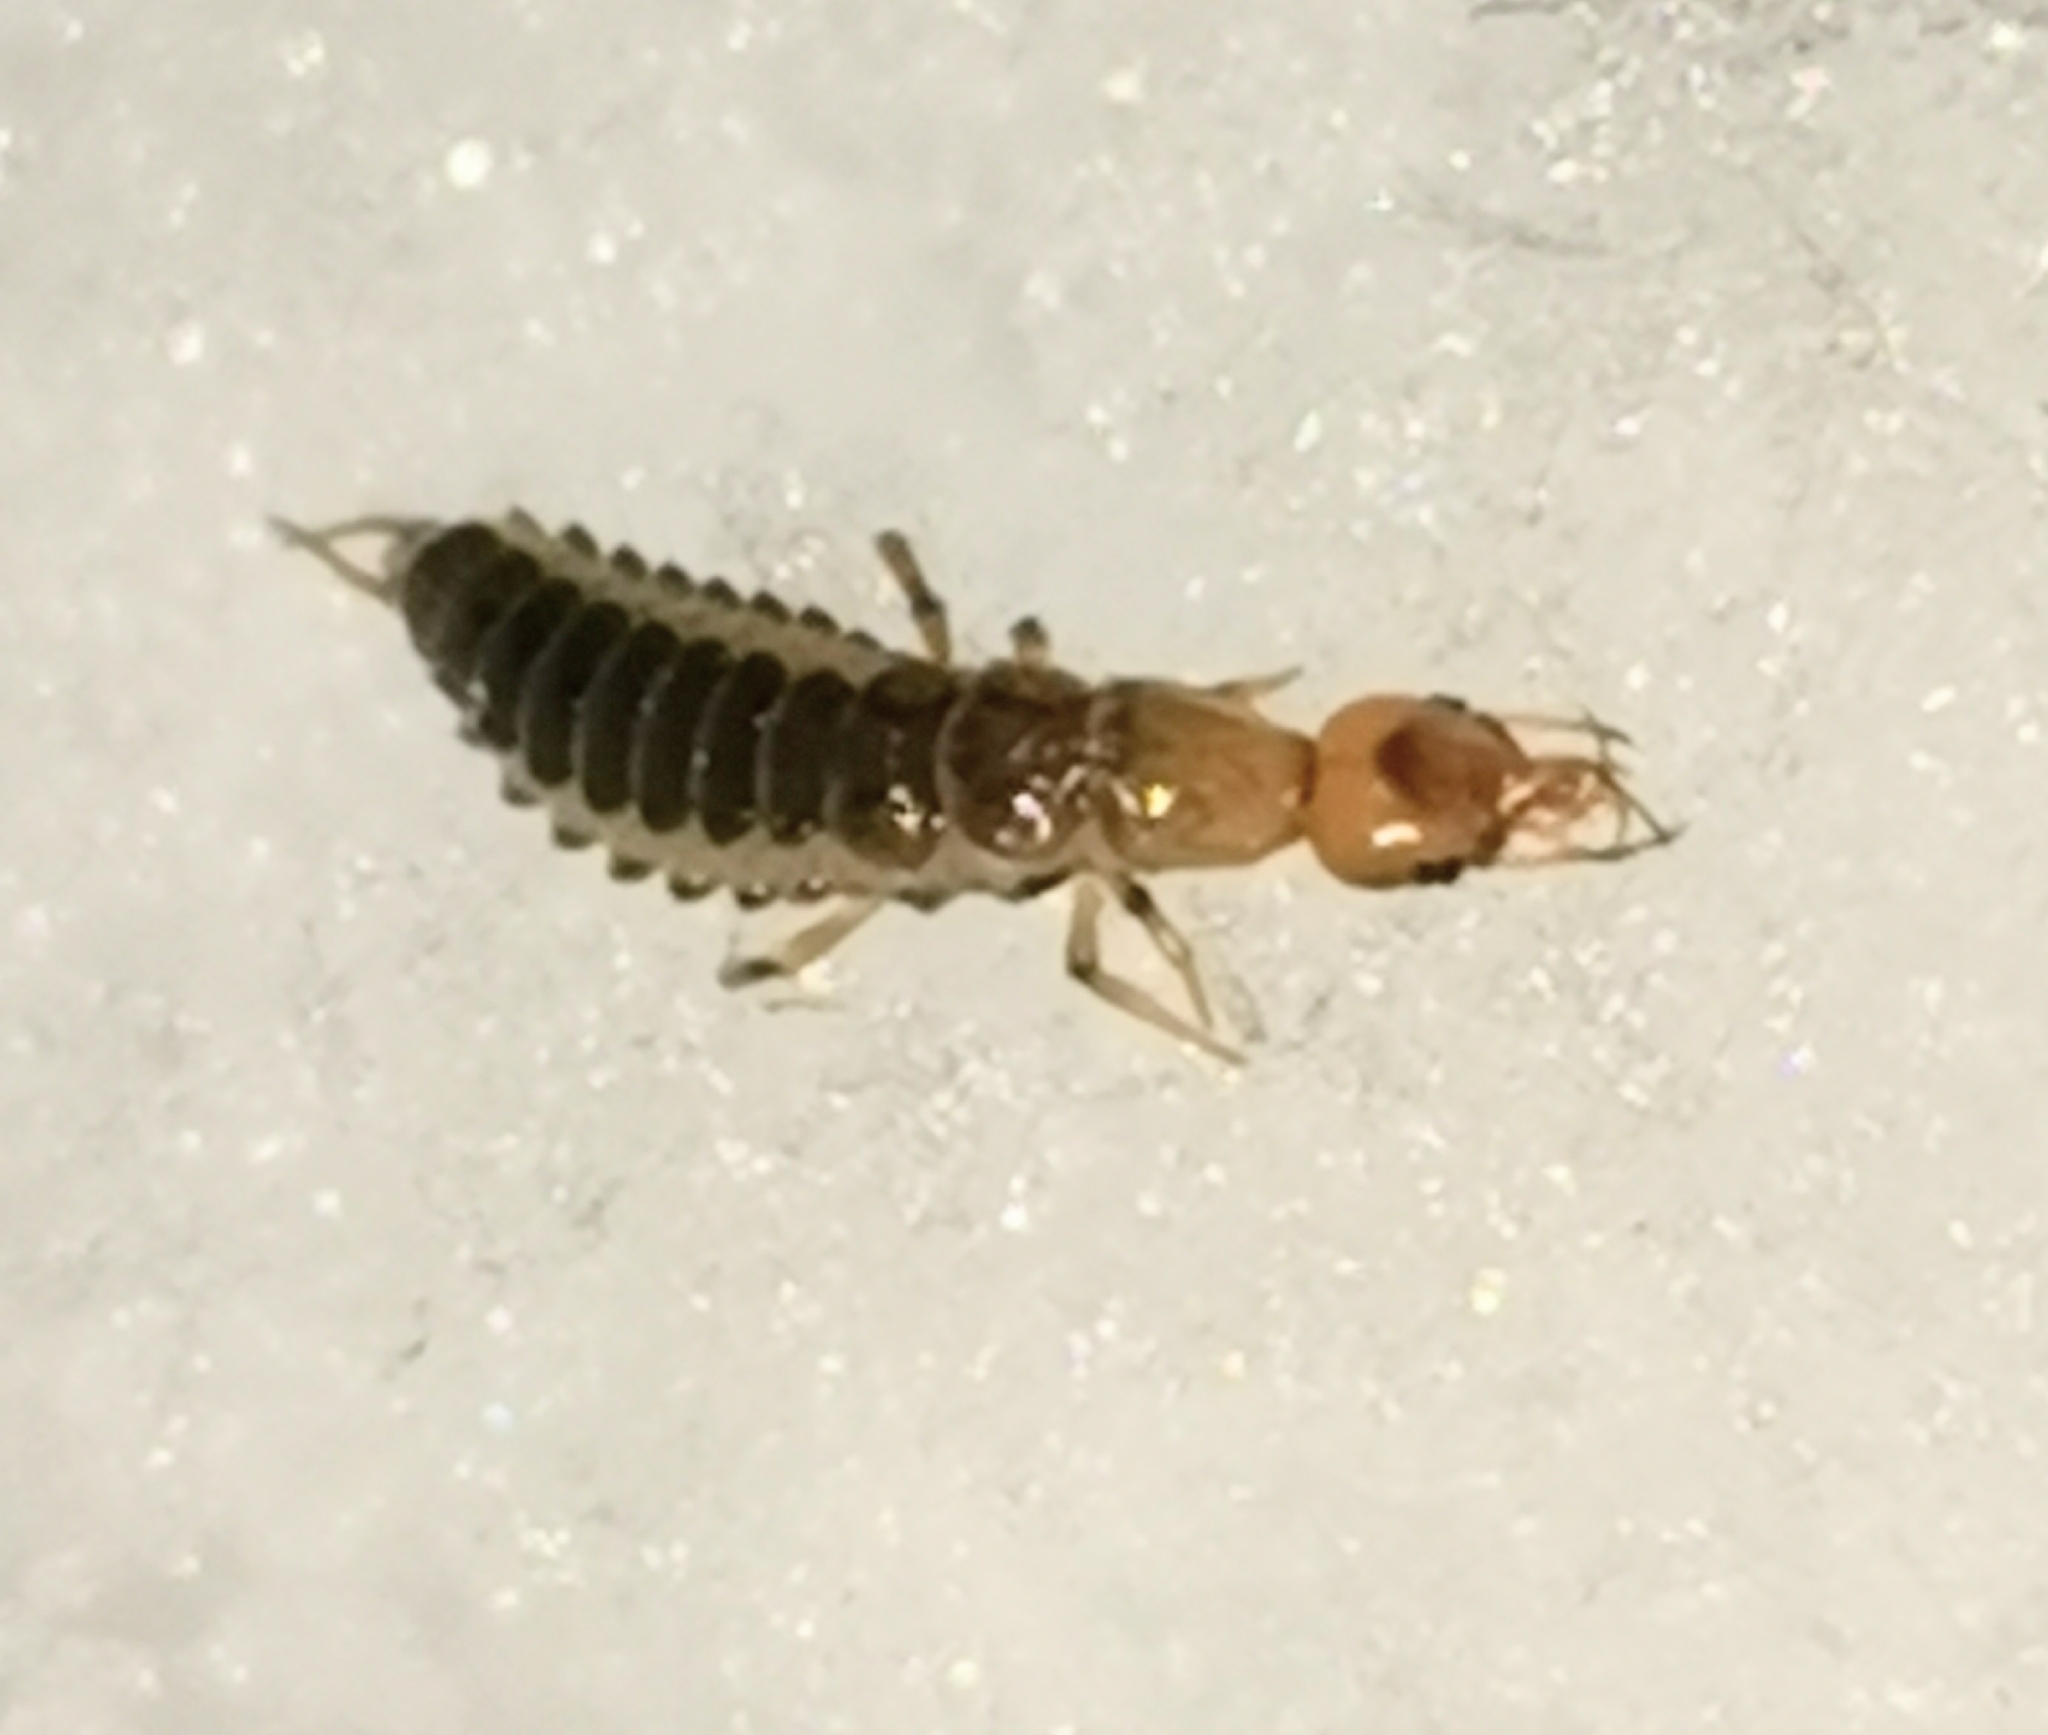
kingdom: Animalia
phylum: Arthropoda
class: Insecta
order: Coleoptera
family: Carabidae
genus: Leistus
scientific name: Leistus
